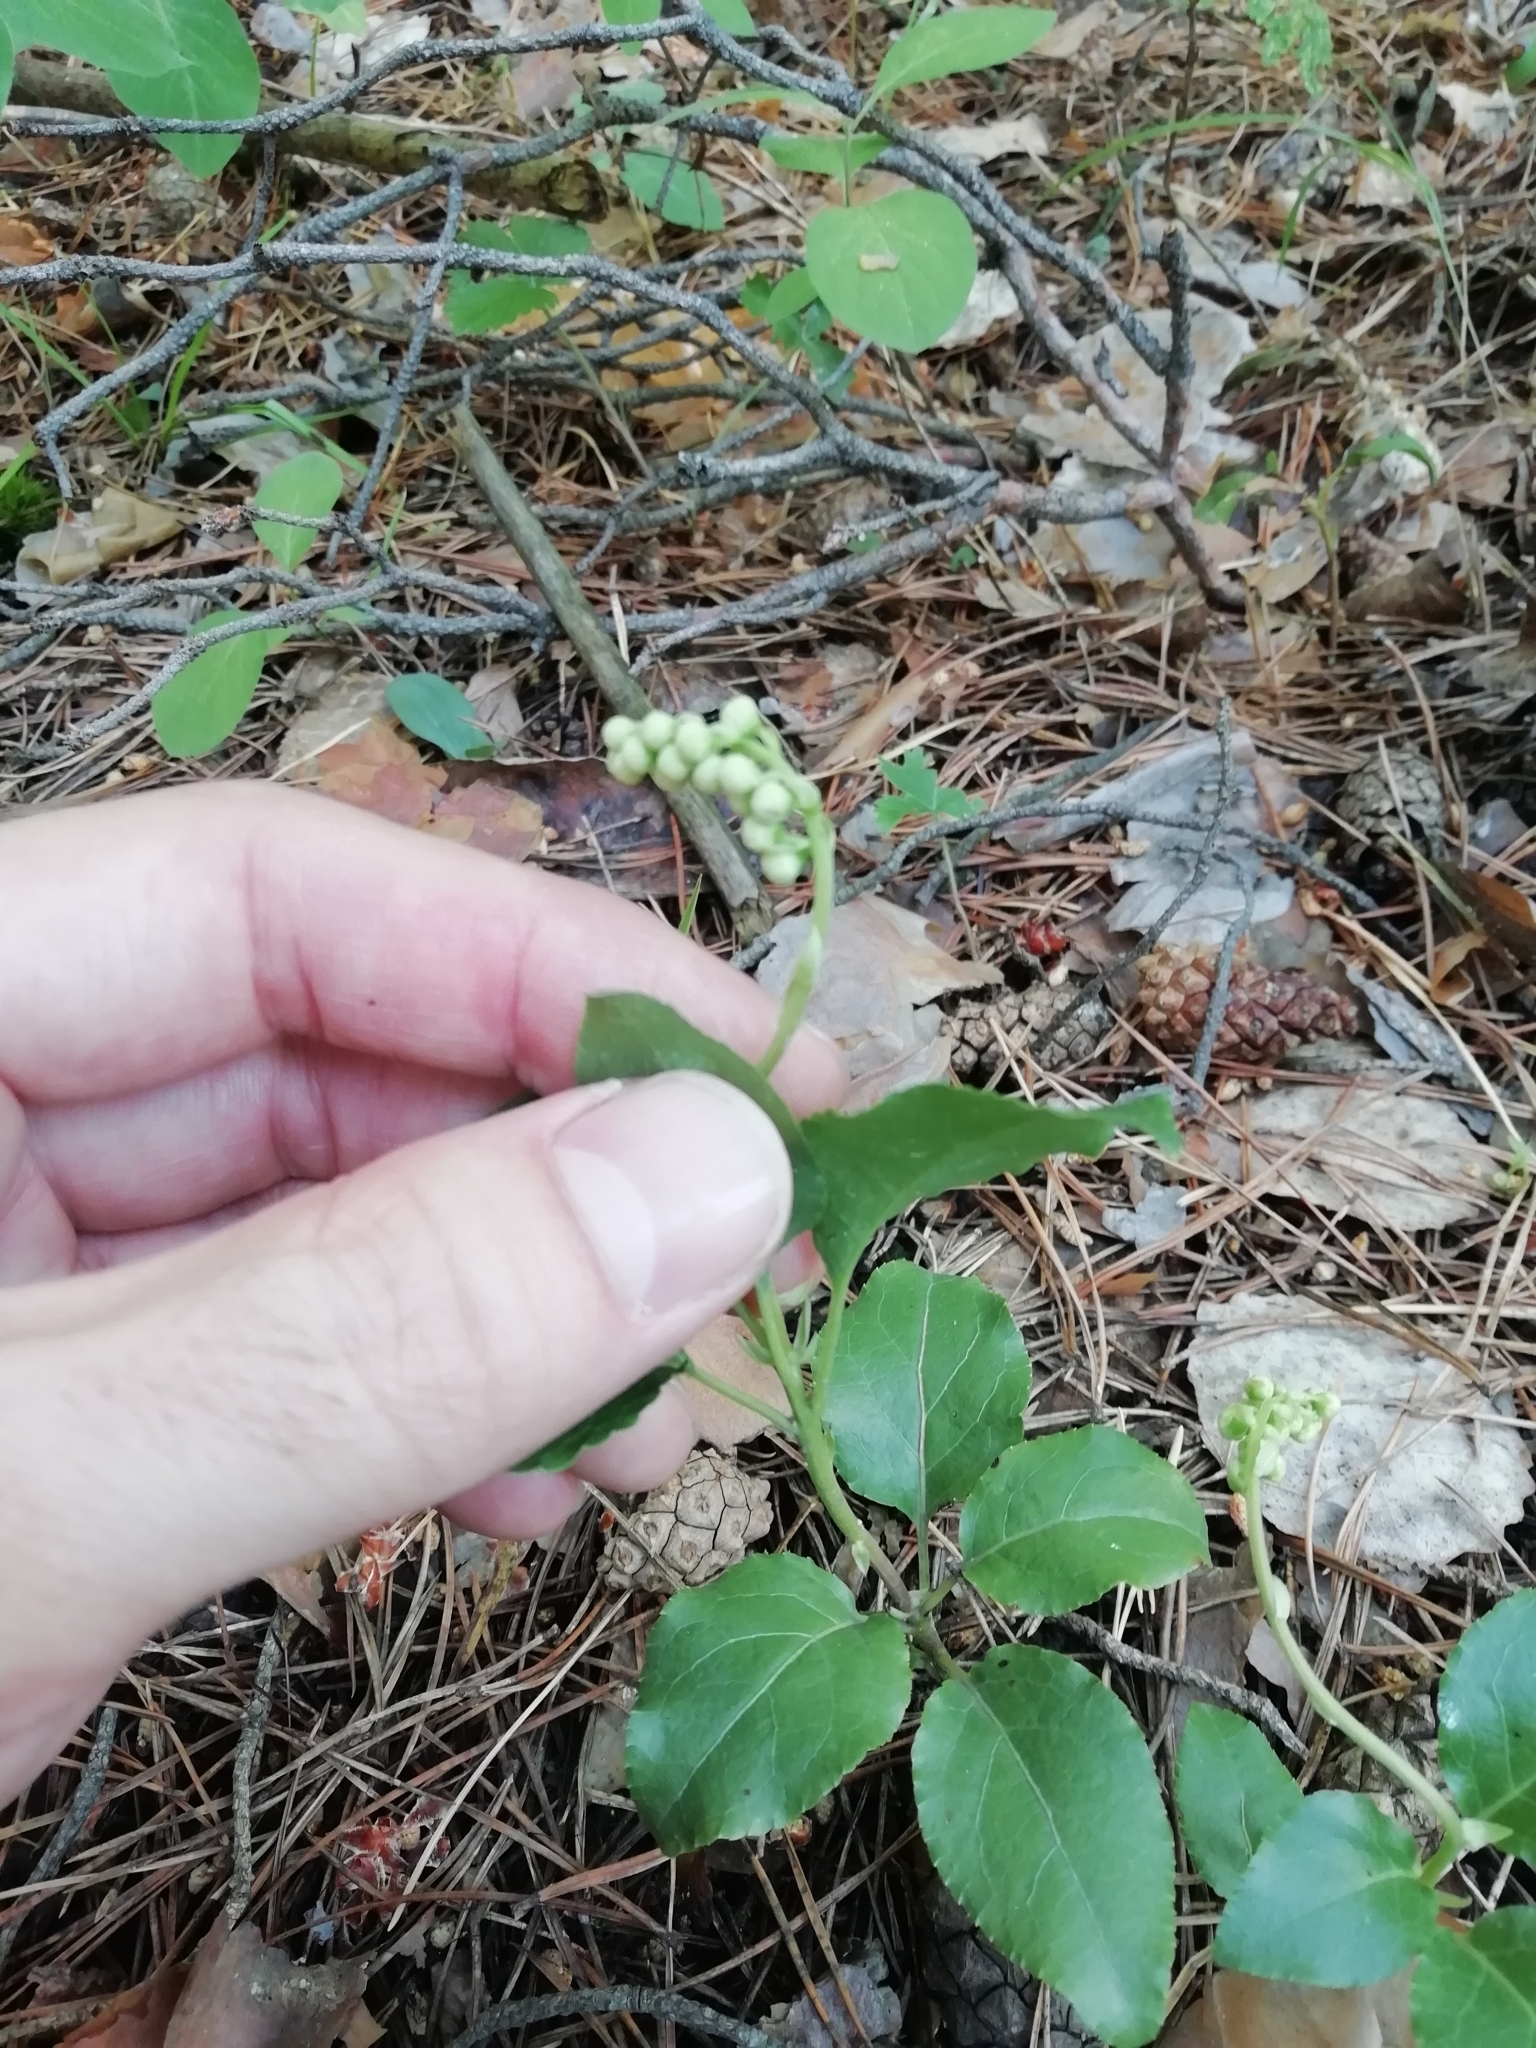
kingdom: Plantae
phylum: Tracheophyta
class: Magnoliopsida
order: Ericales
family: Ericaceae
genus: Orthilia
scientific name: Orthilia secunda
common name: One-sided orthilia
